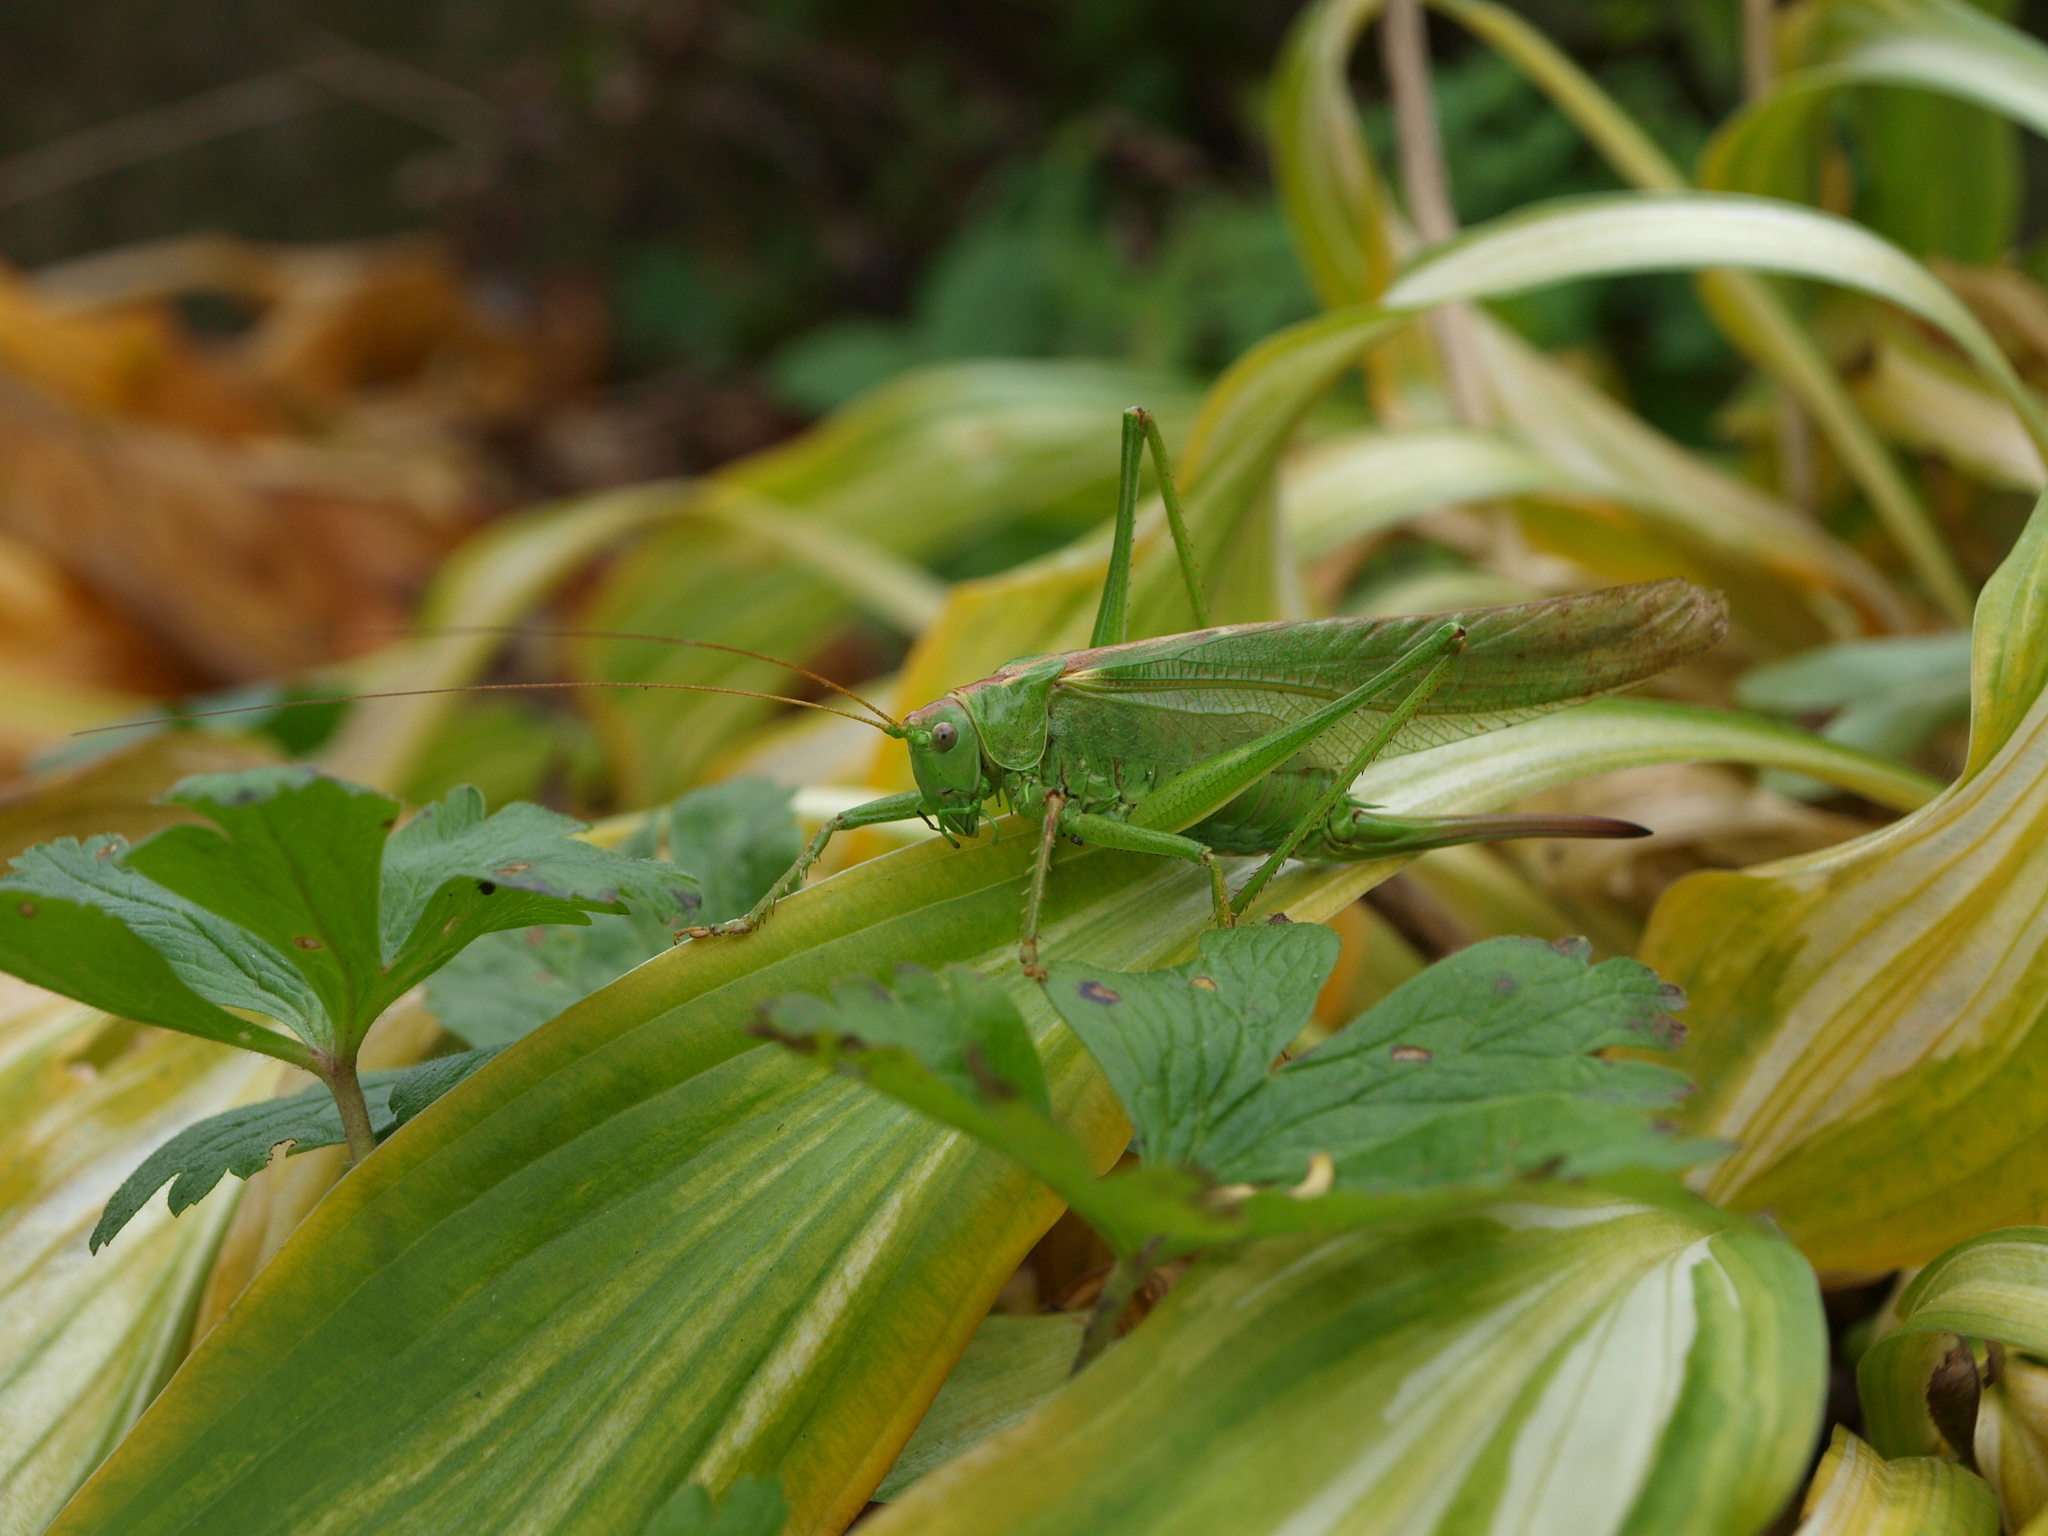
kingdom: Animalia
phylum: Arthropoda
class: Insecta
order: Orthoptera
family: Tettigoniidae
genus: Tettigonia
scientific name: Tettigonia viridissima
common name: Great green bush-cricket
